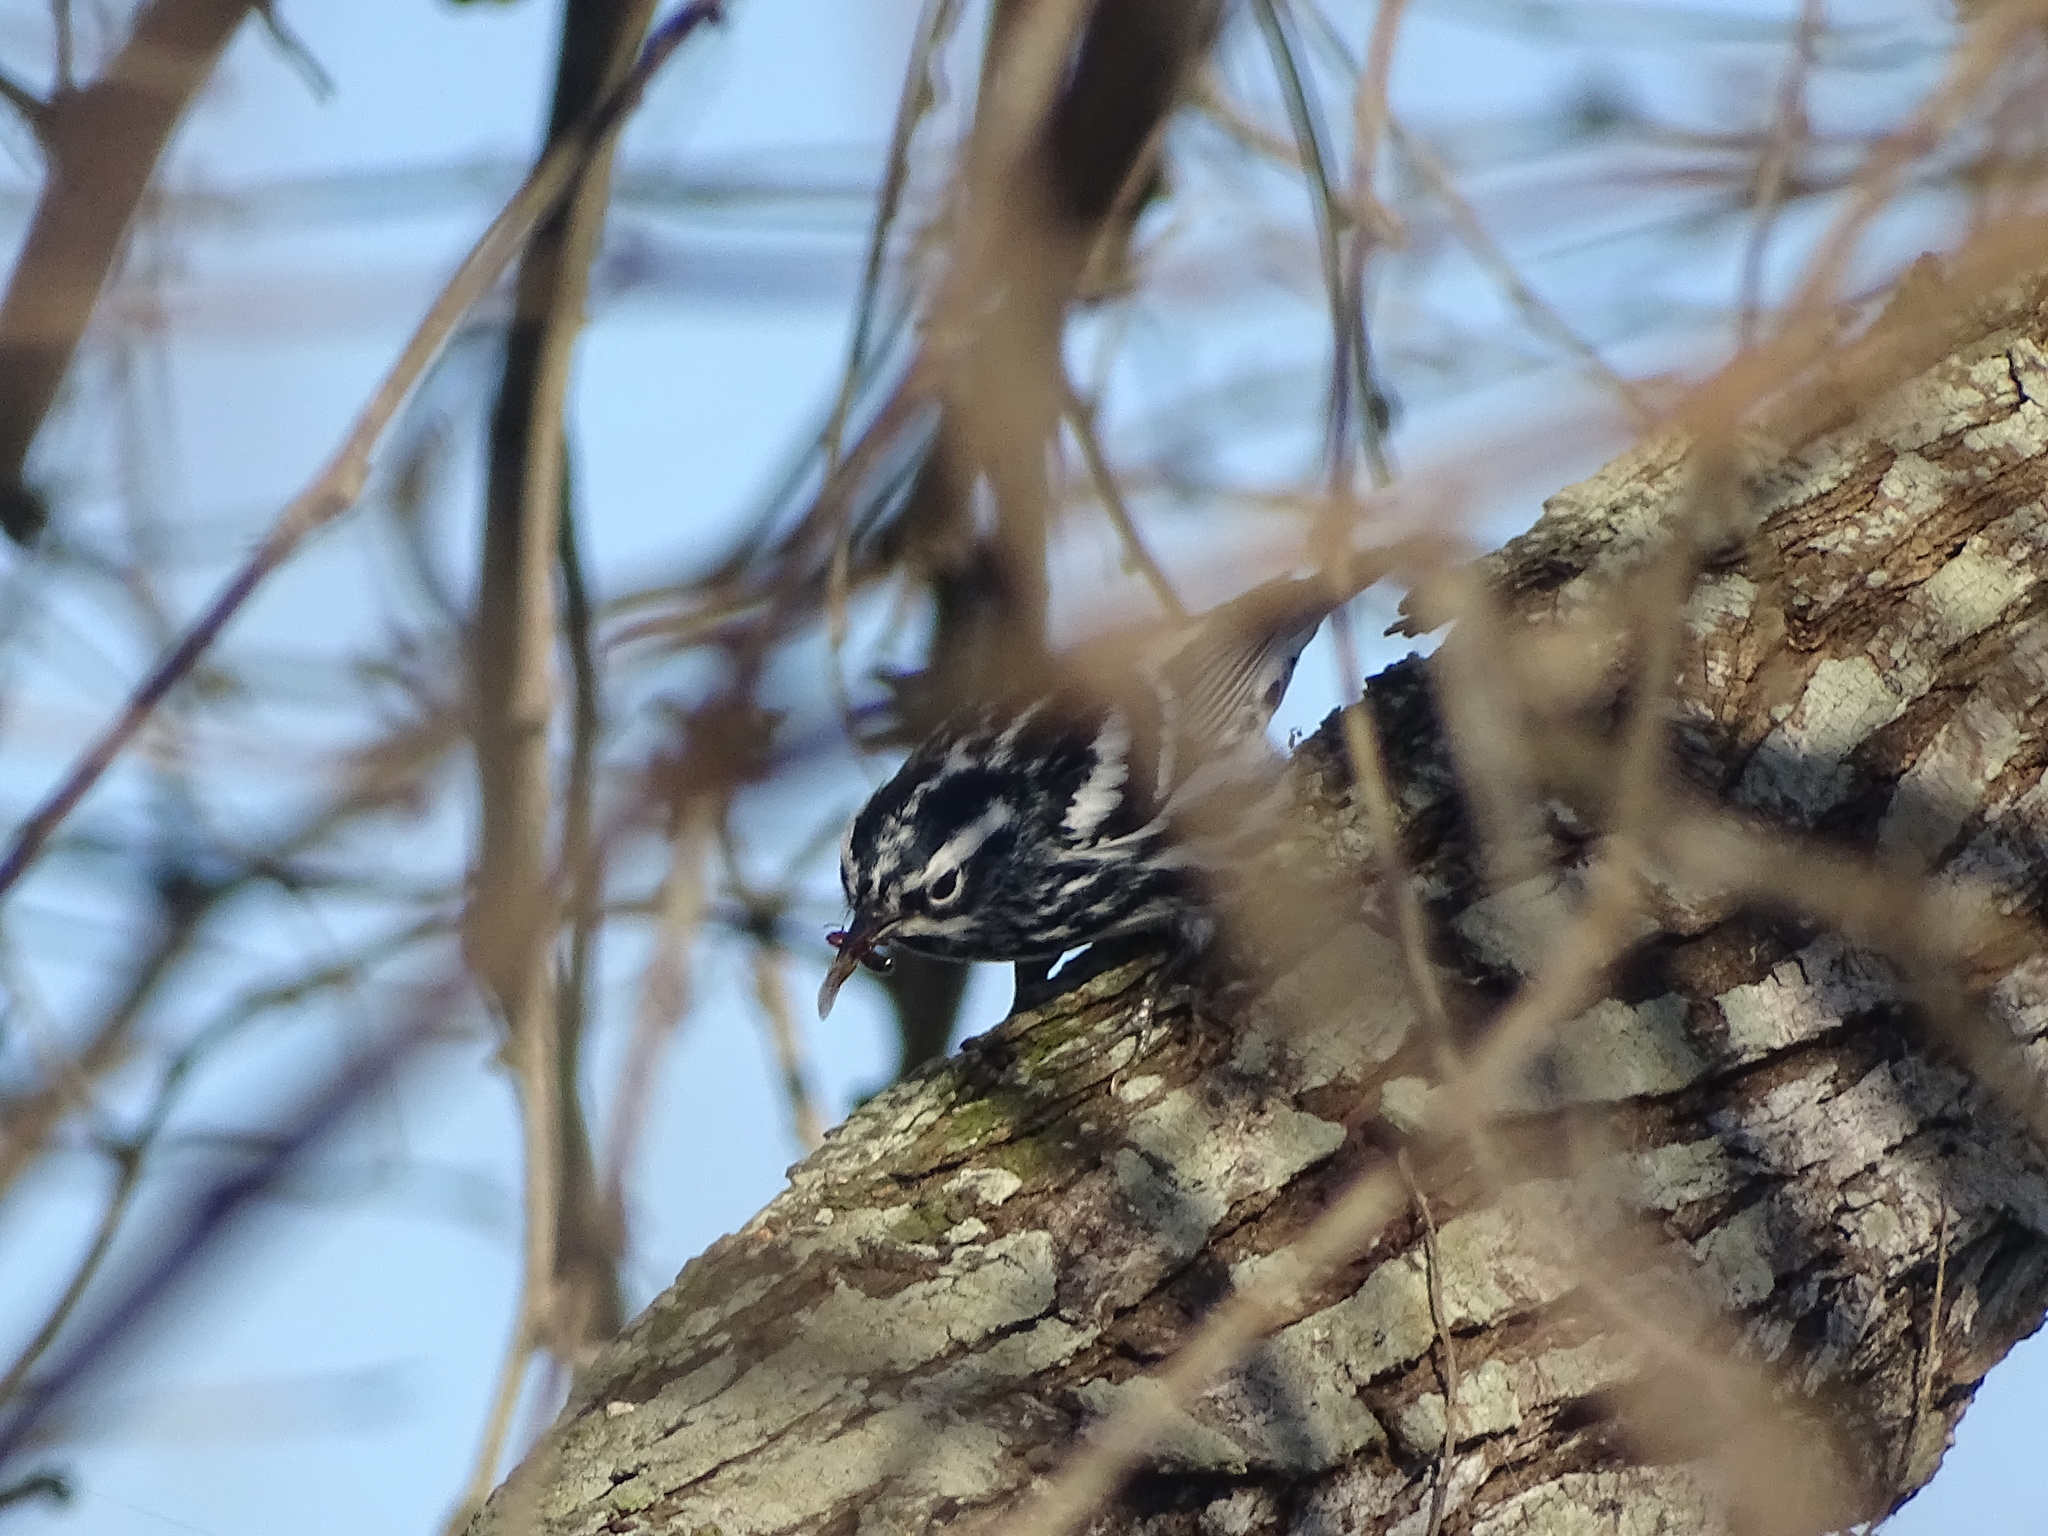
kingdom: Animalia
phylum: Chordata
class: Aves
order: Passeriformes
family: Parulidae
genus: Mniotilta
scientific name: Mniotilta varia
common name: Black-and-white warbler
